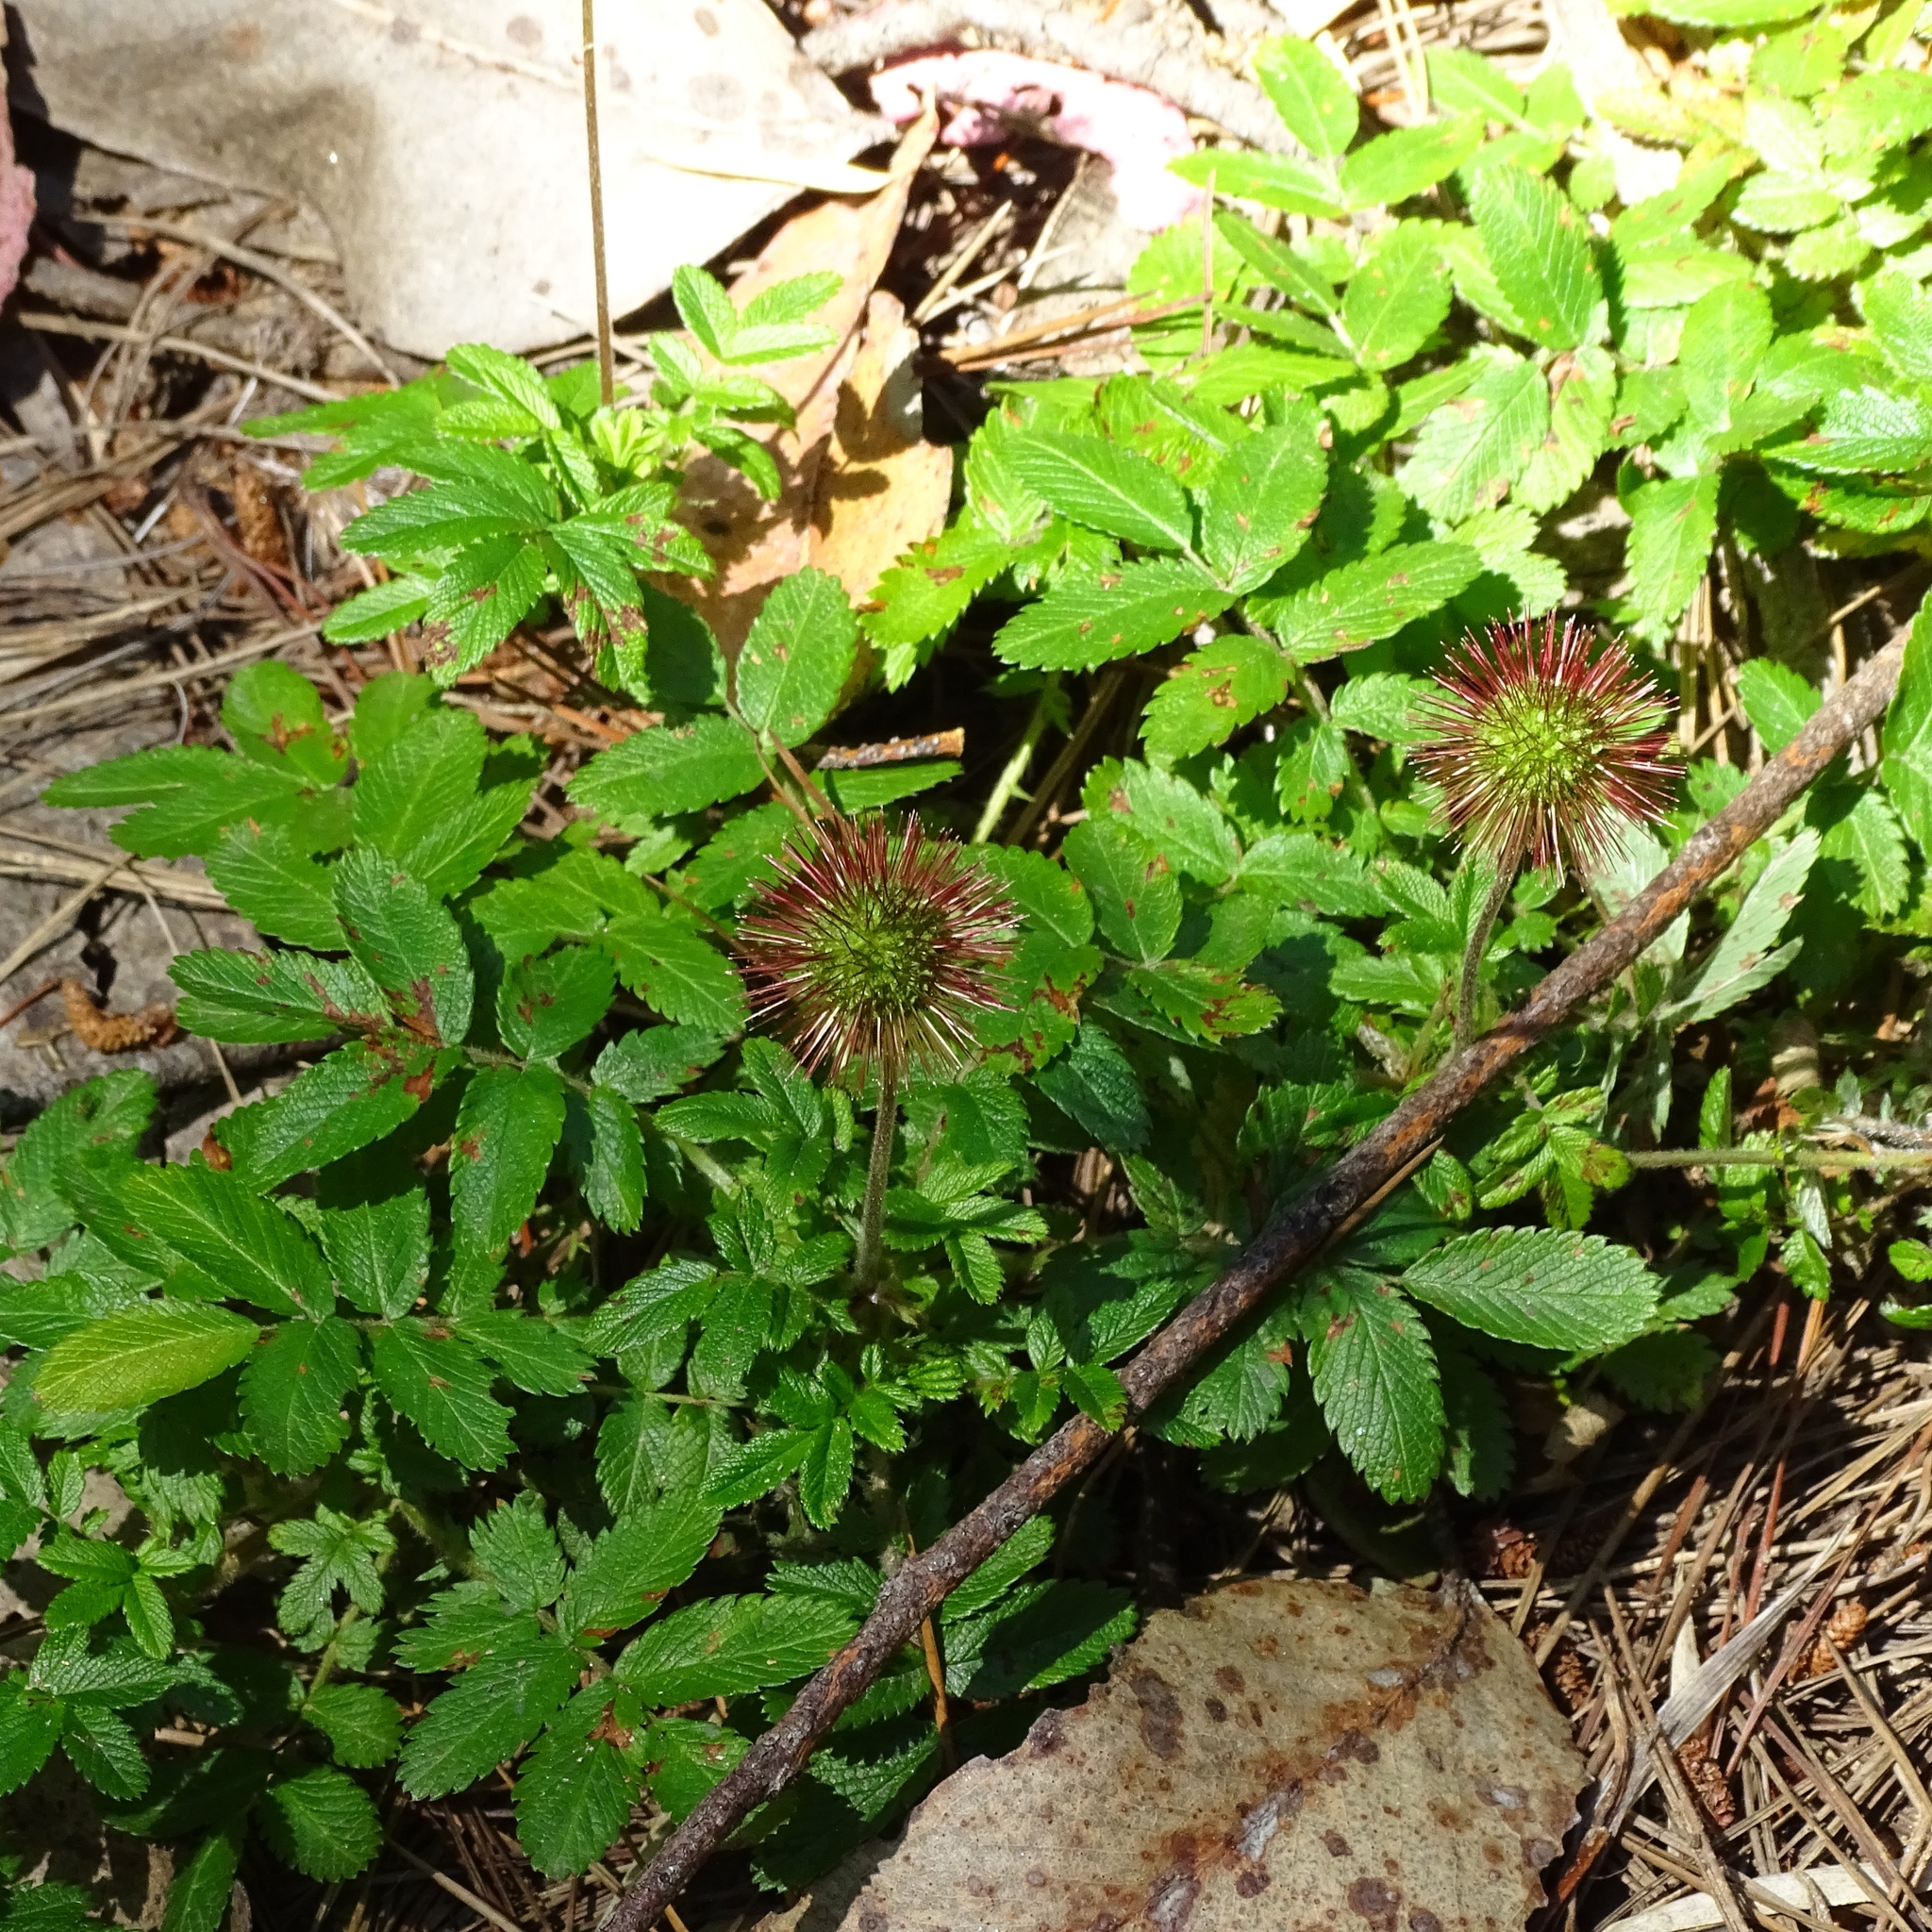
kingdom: Plantae
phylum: Tracheophyta
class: Magnoliopsida
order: Rosales
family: Rosaceae
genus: Acaena
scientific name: Acaena ovalifolia
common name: Two-spined acaena
